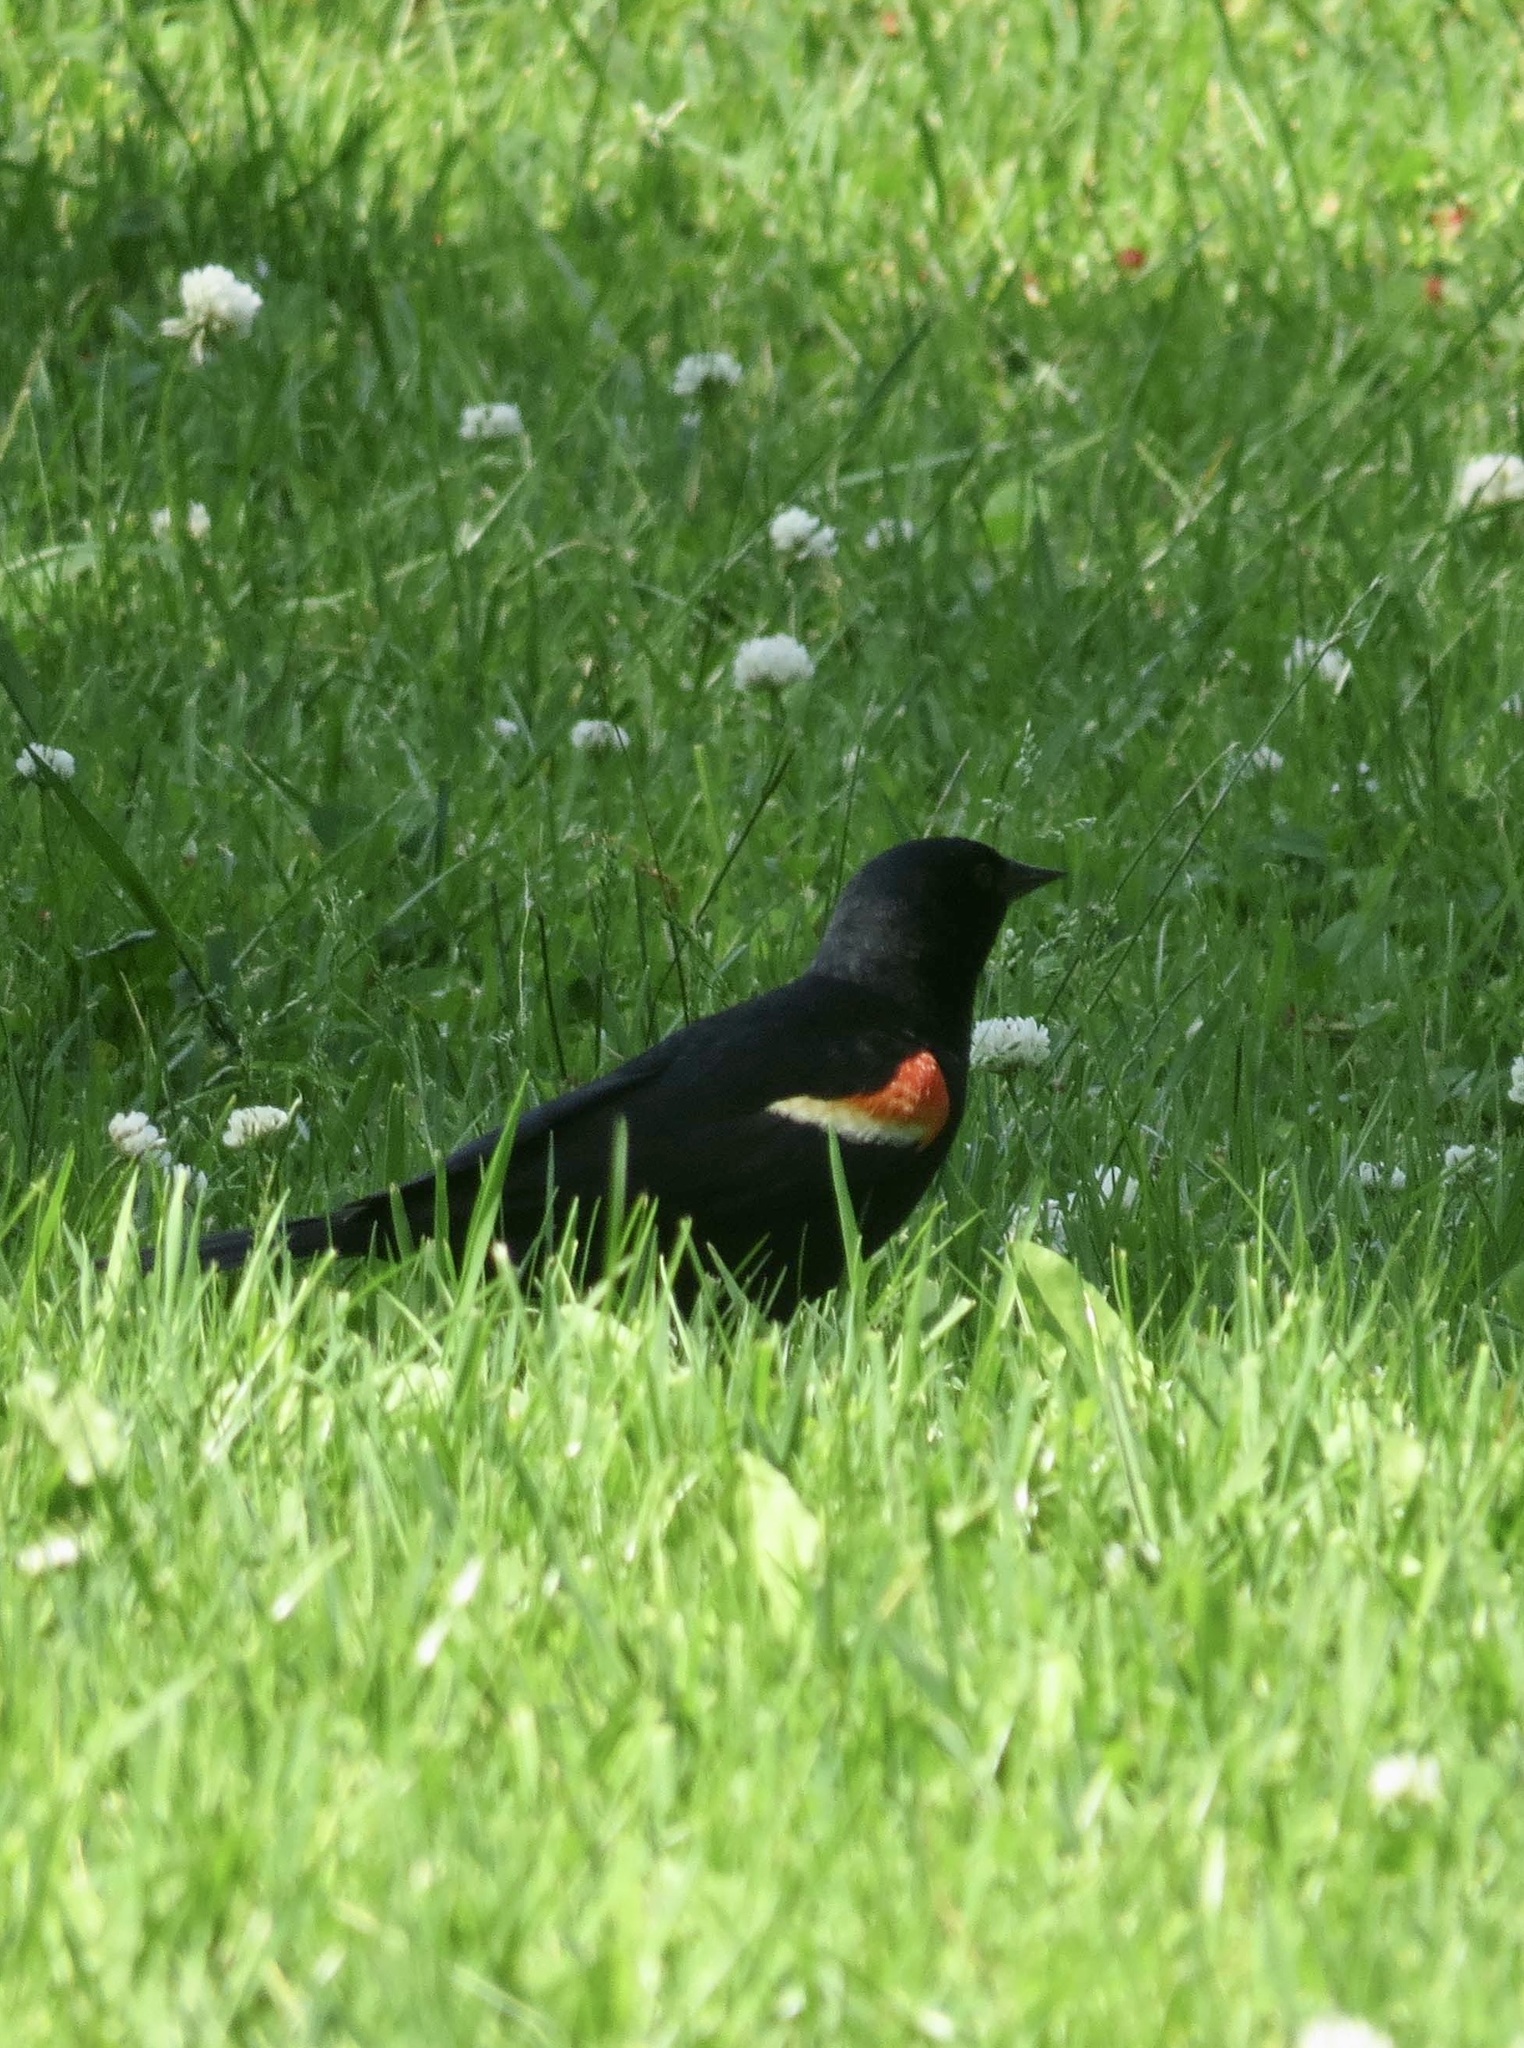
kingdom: Animalia
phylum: Chordata
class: Aves
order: Passeriformes
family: Icteridae
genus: Agelaius
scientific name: Agelaius phoeniceus
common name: Red-winged blackbird
